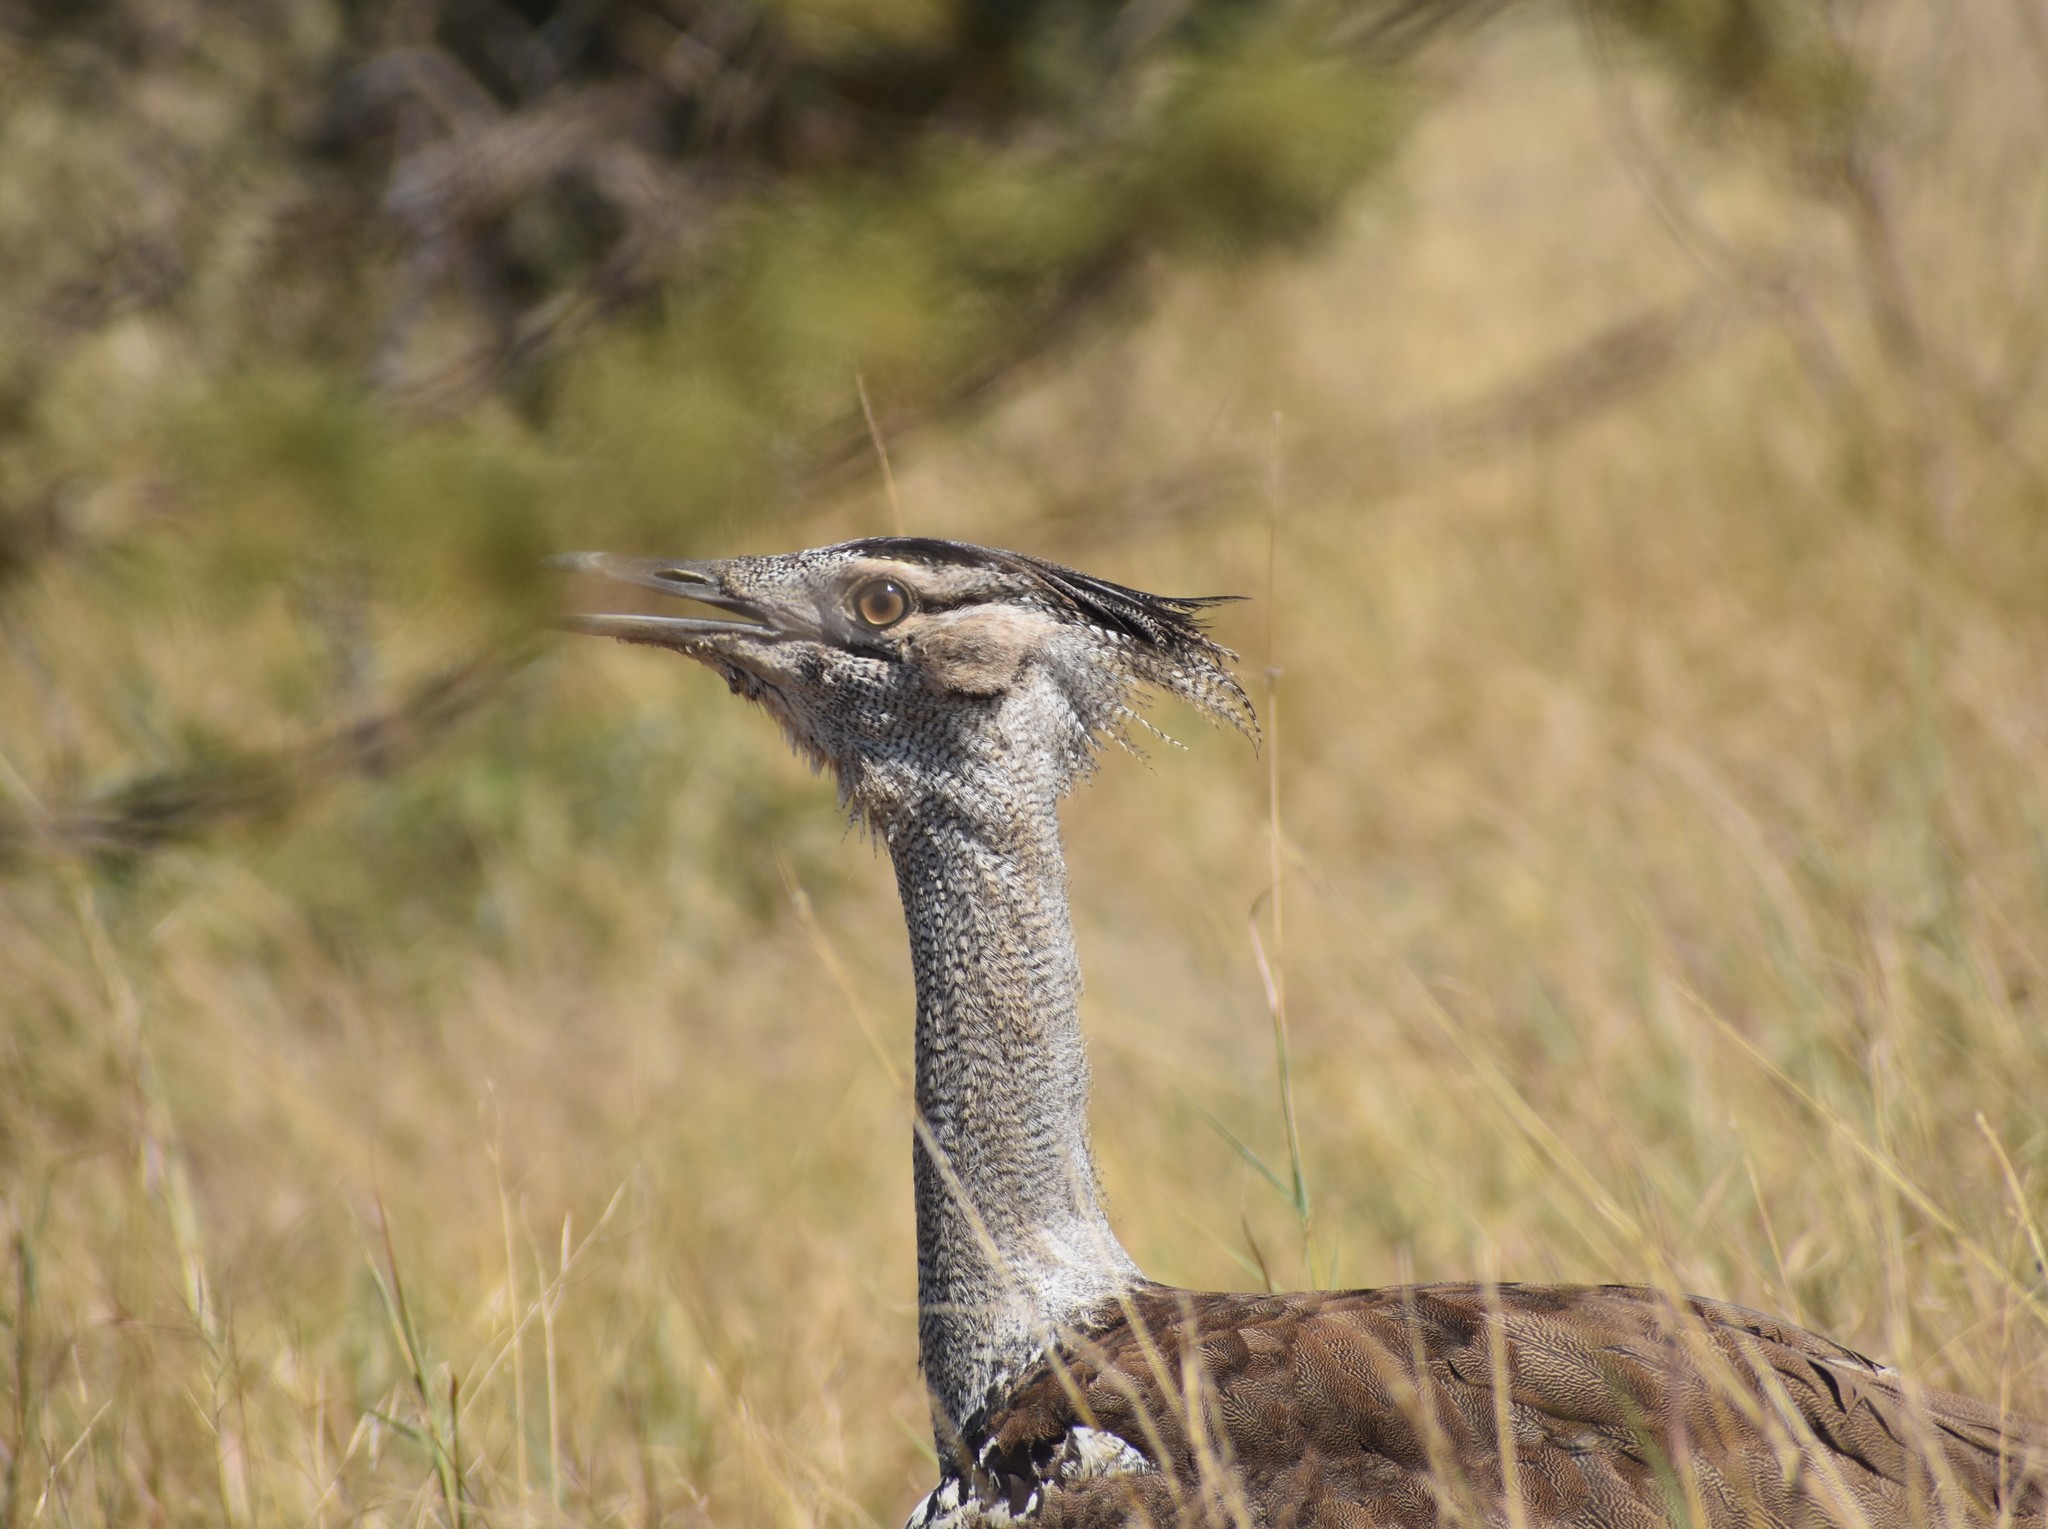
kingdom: Animalia
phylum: Chordata
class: Aves
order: Otidiformes
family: Otididae
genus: Ardeotis
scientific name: Ardeotis kori
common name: Kori bustard
